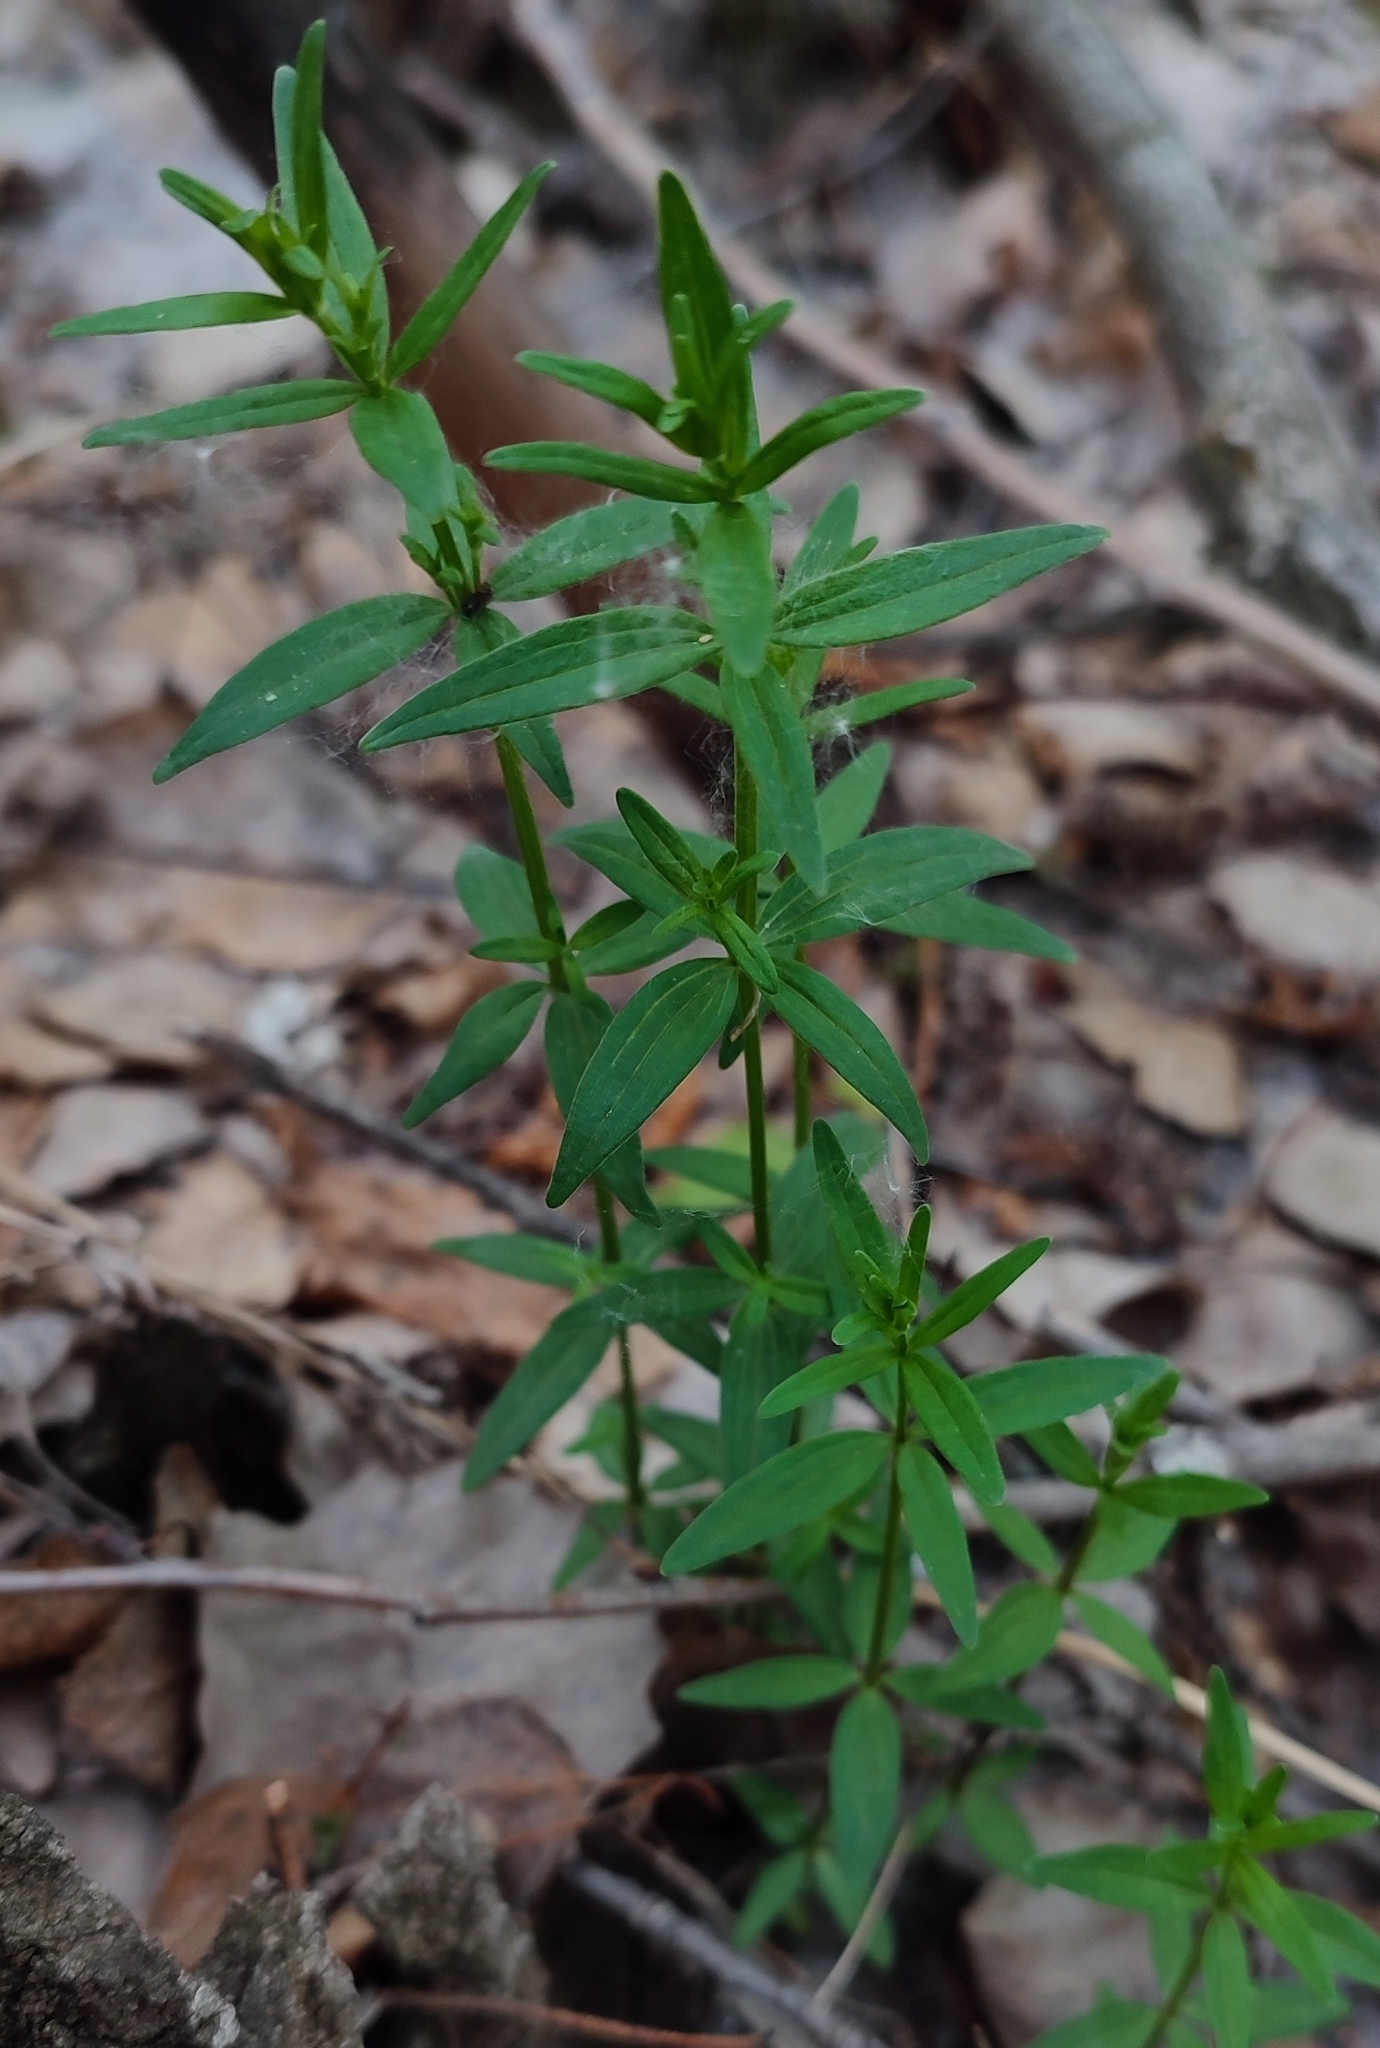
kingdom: Plantae
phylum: Tracheophyta
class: Magnoliopsida
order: Gentianales
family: Rubiaceae
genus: Galium
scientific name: Galium boreale
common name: Northern bedstraw
